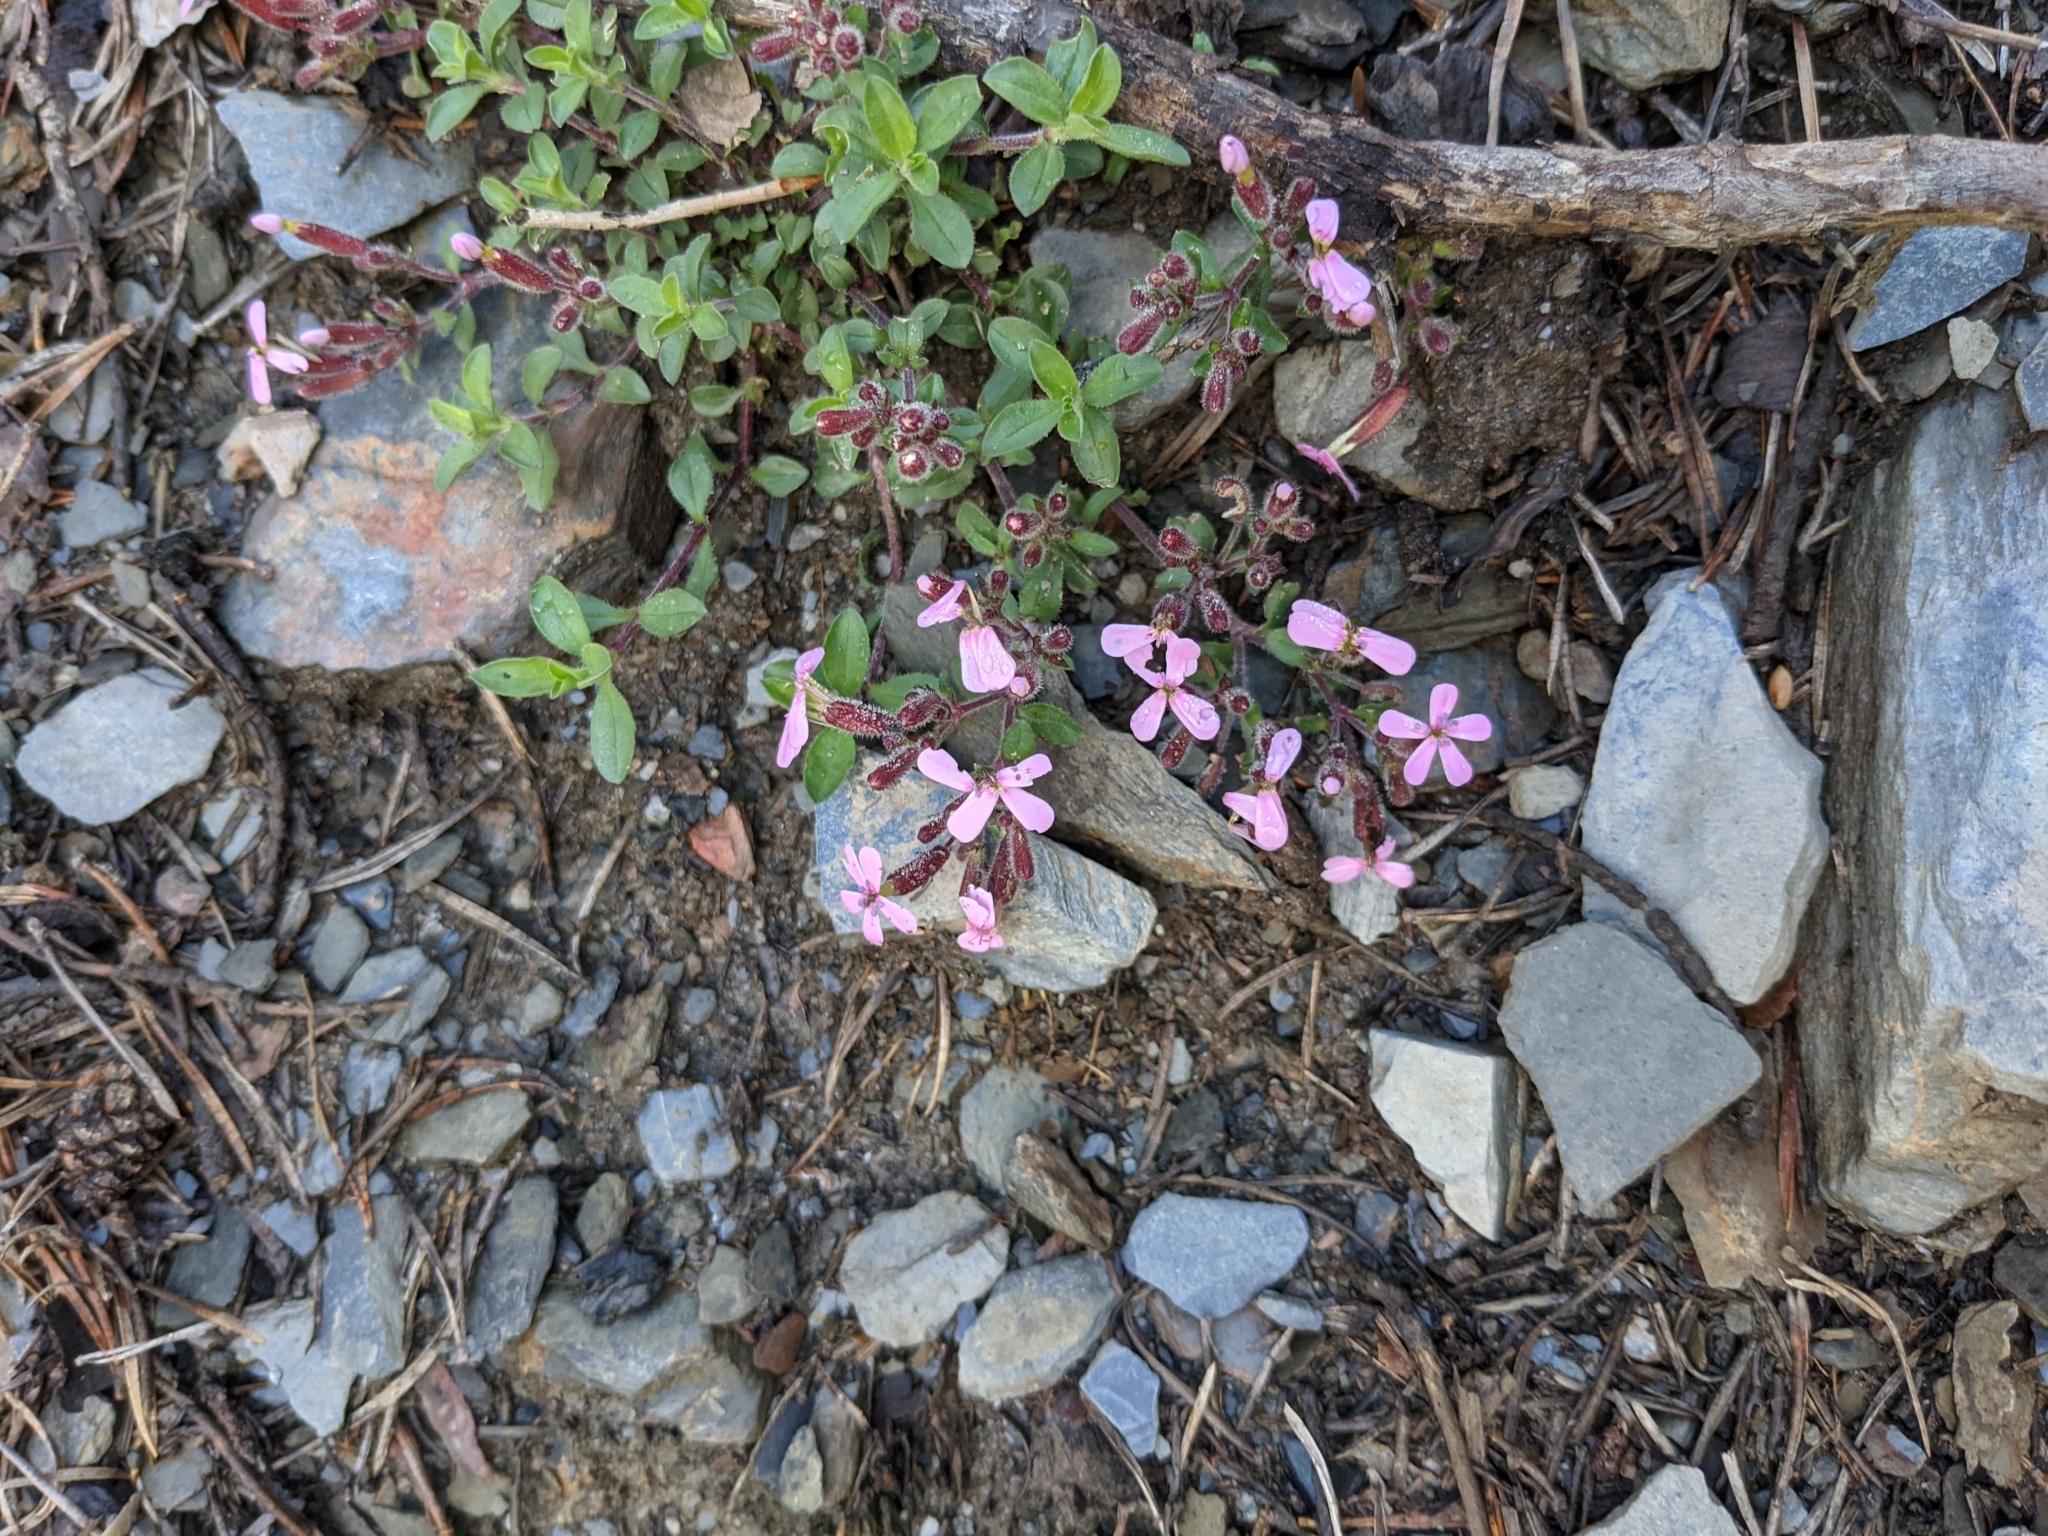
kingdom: Plantae
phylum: Tracheophyta
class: Magnoliopsida
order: Caryophyllales
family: Caryophyllaceae
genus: Saponaria
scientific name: Saponaria ocymoides
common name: Rock soapwort
